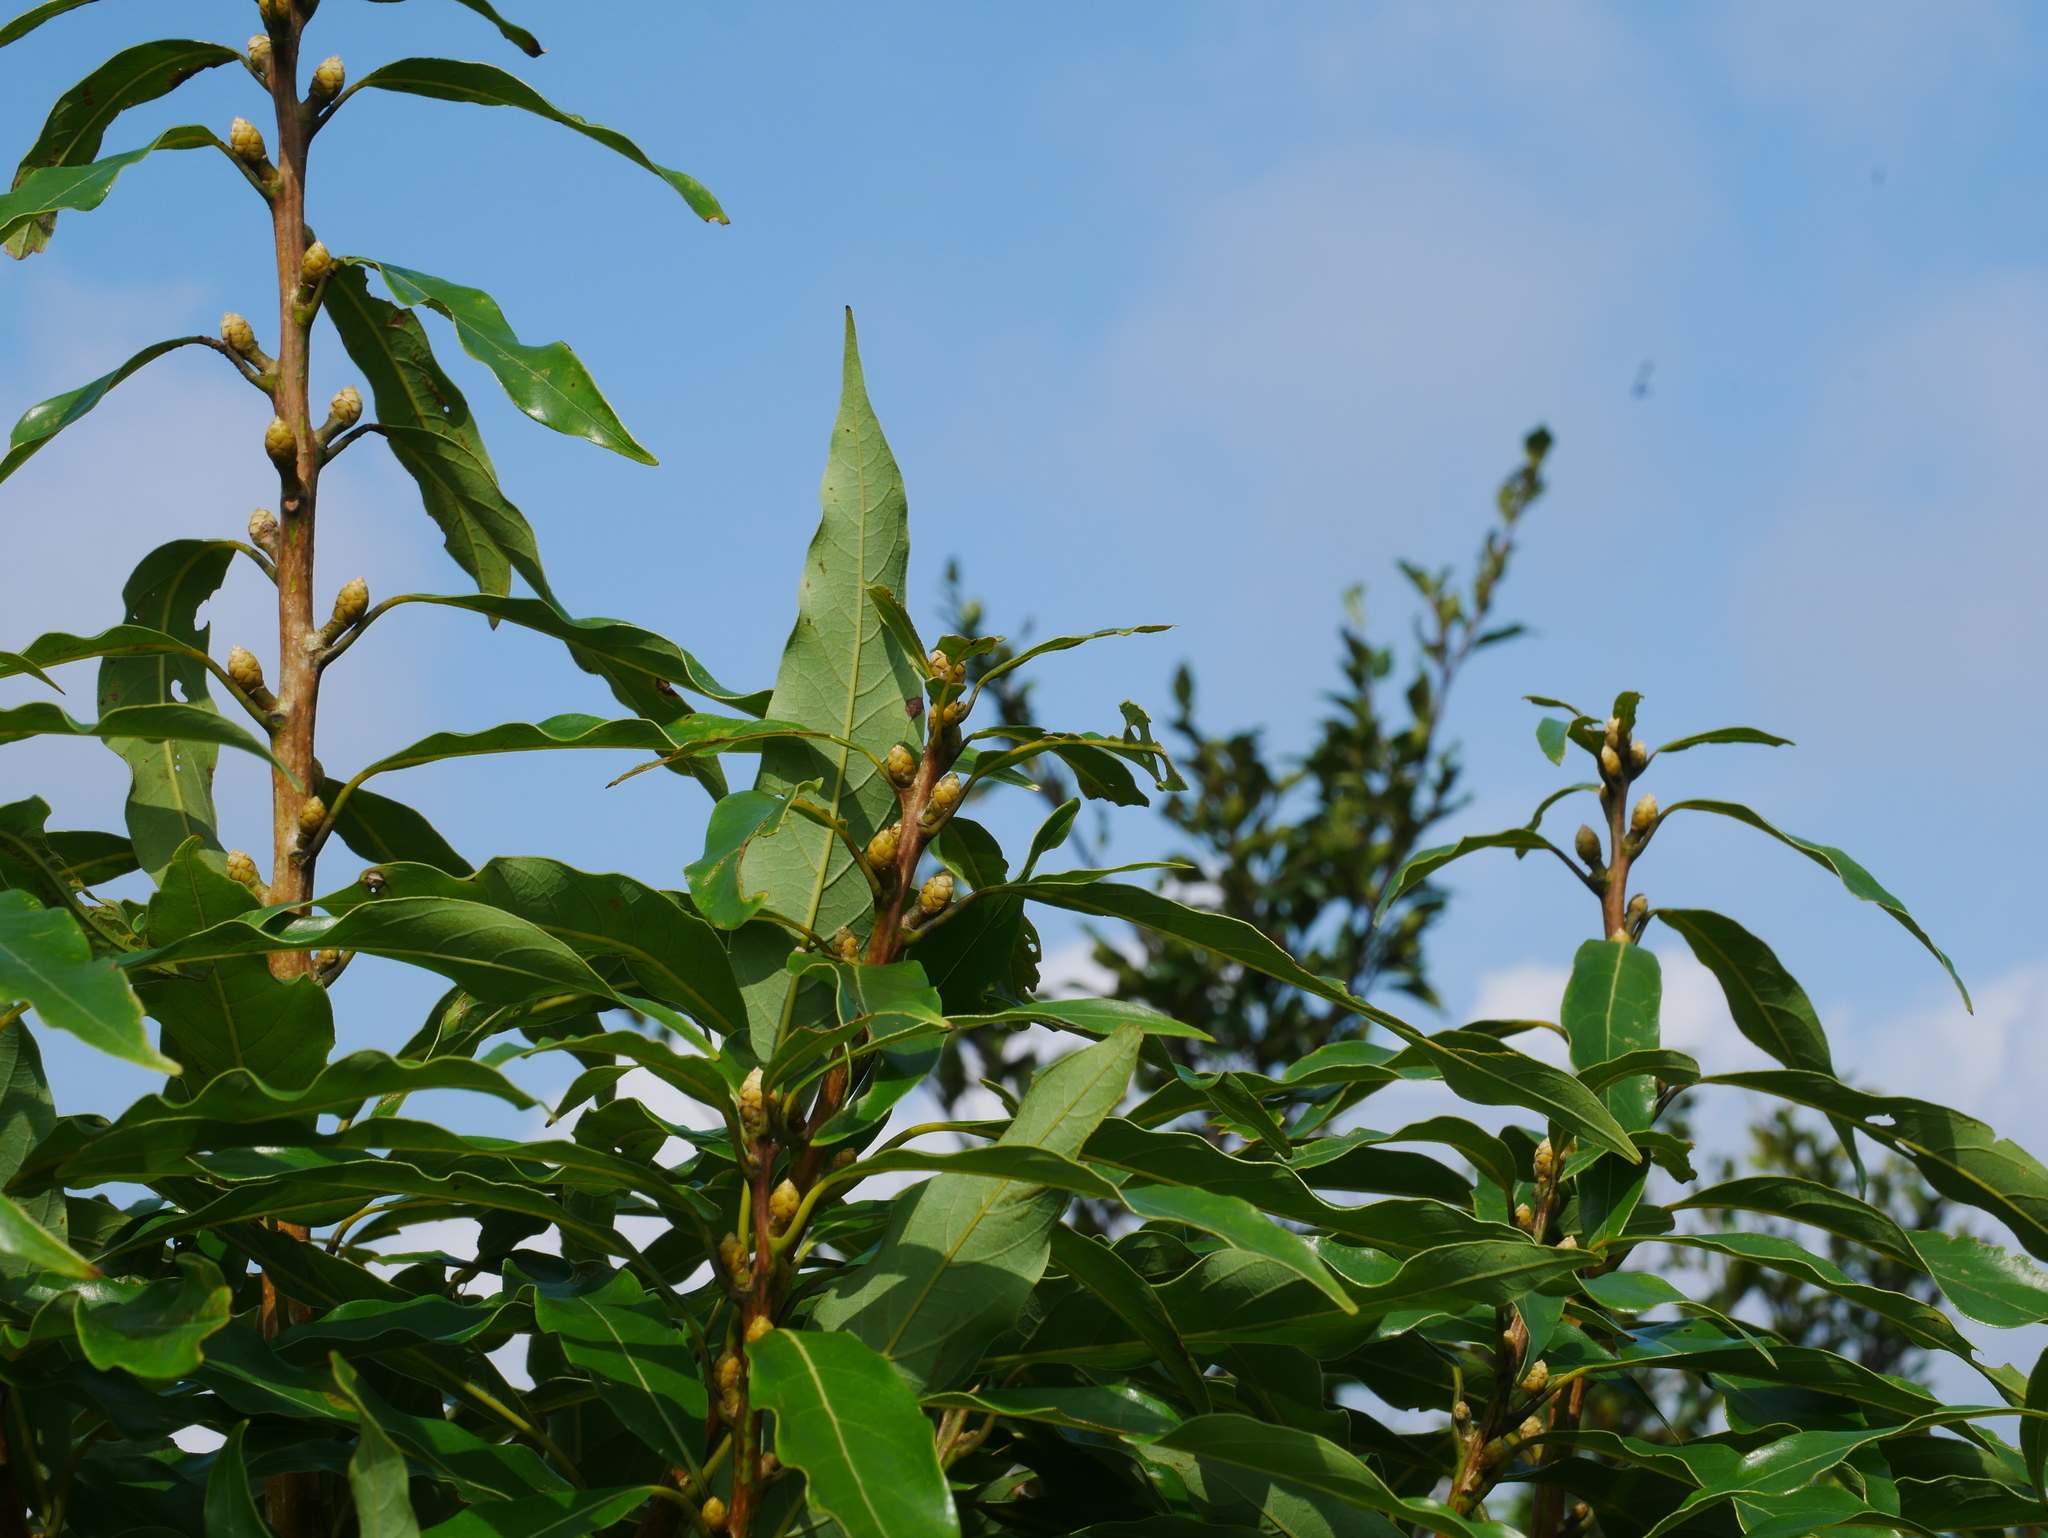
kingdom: Plantae
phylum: Tracheophyta
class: Magnoliopsida
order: Laurales
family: Lauraceae
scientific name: Lauraceae
